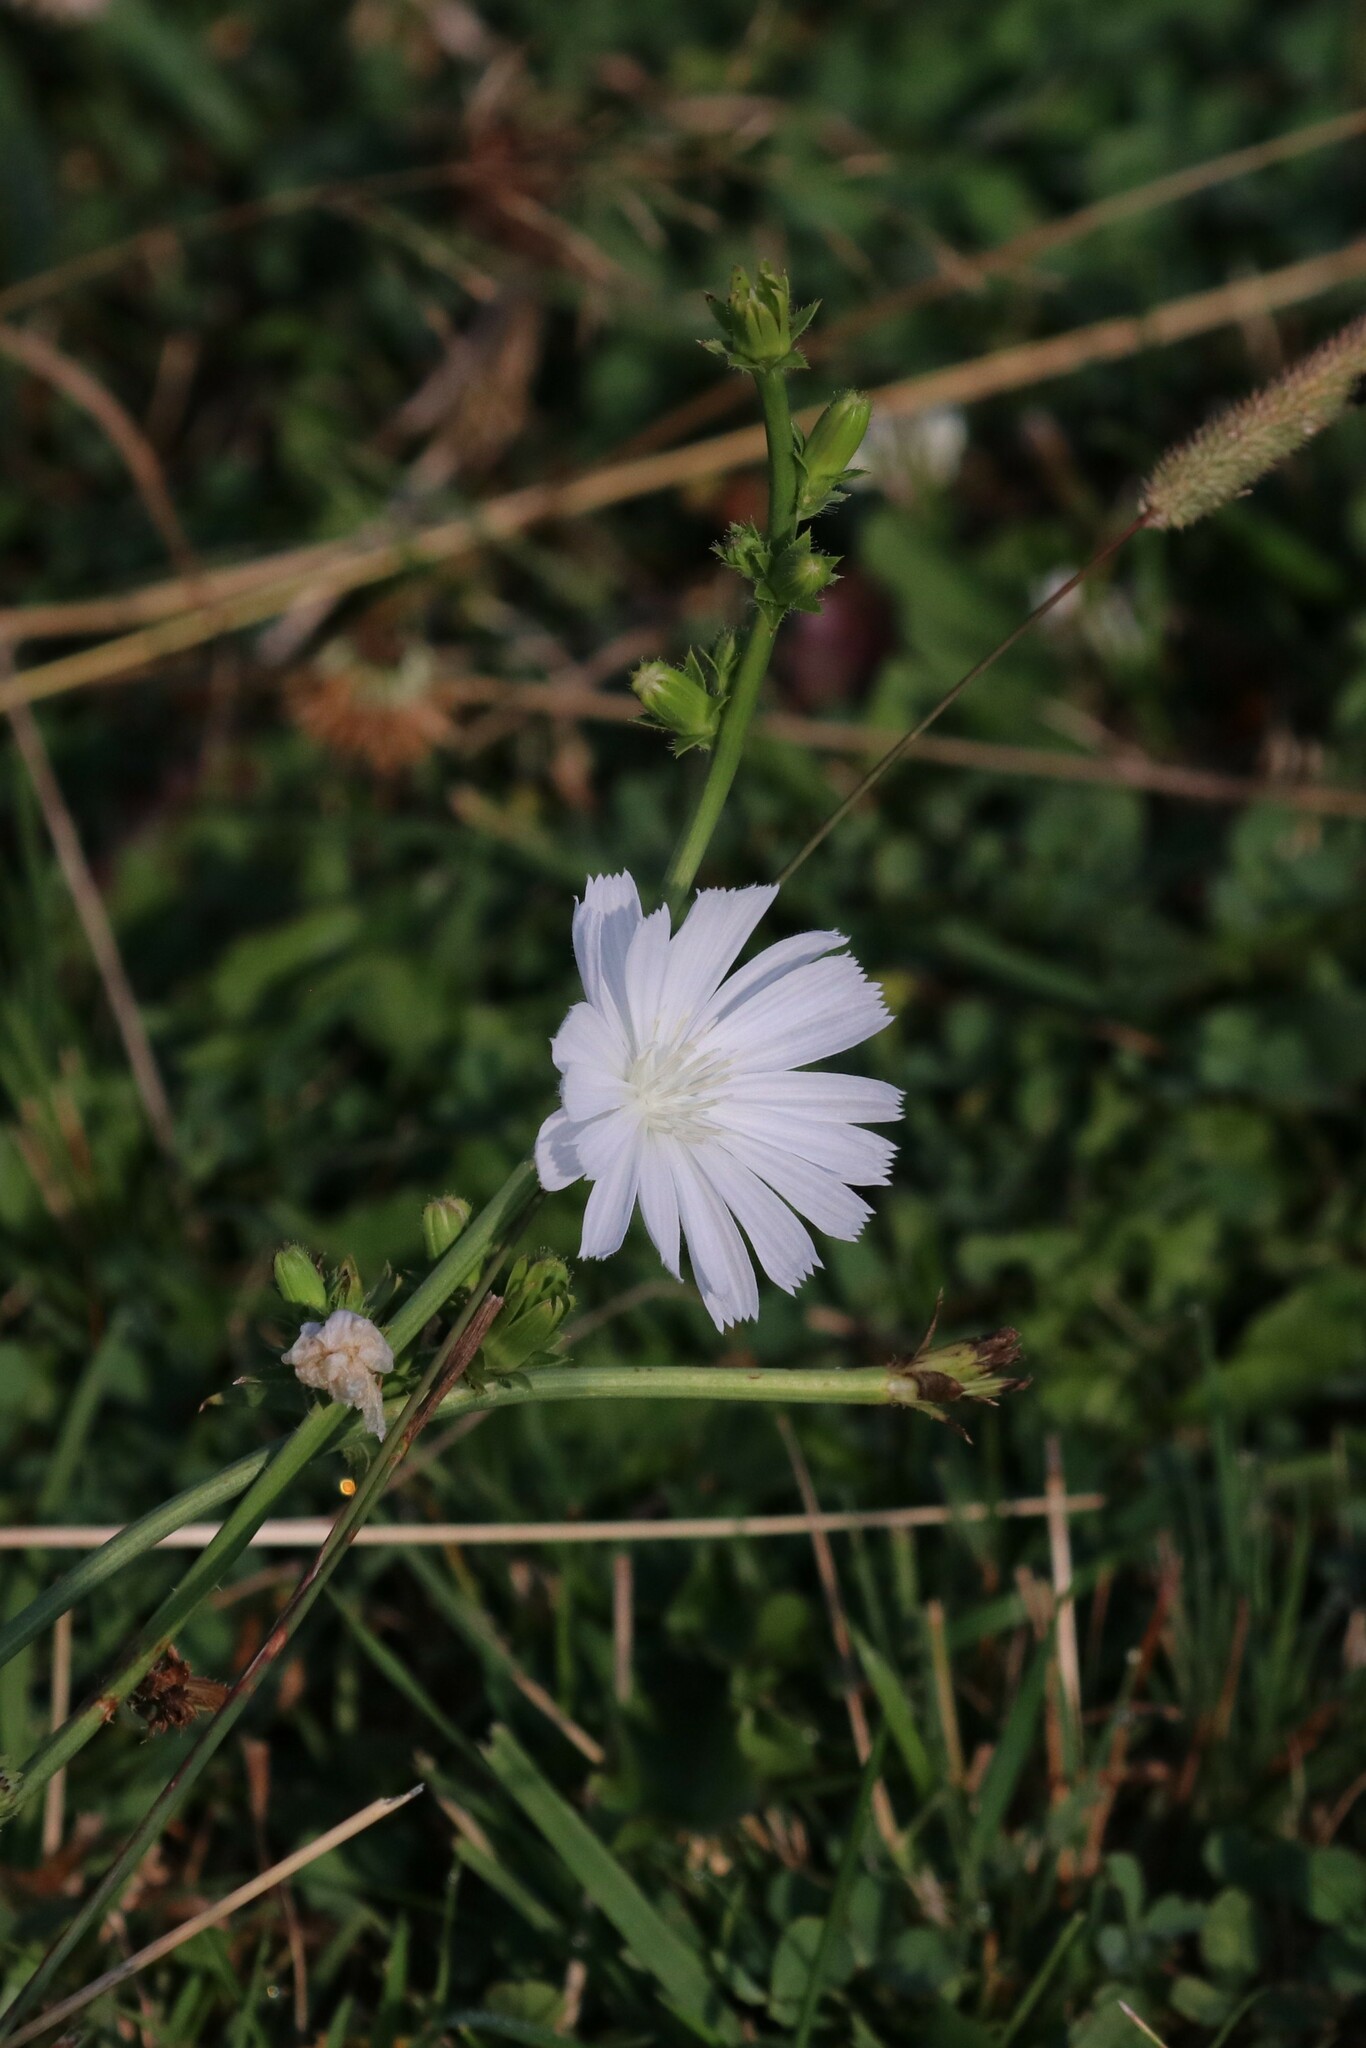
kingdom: Plantae
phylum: Tracheophyta
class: Magnoliopsida
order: Asterales
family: Asteraceae
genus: Cichorium
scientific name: Cichorium intybus
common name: Chicory
